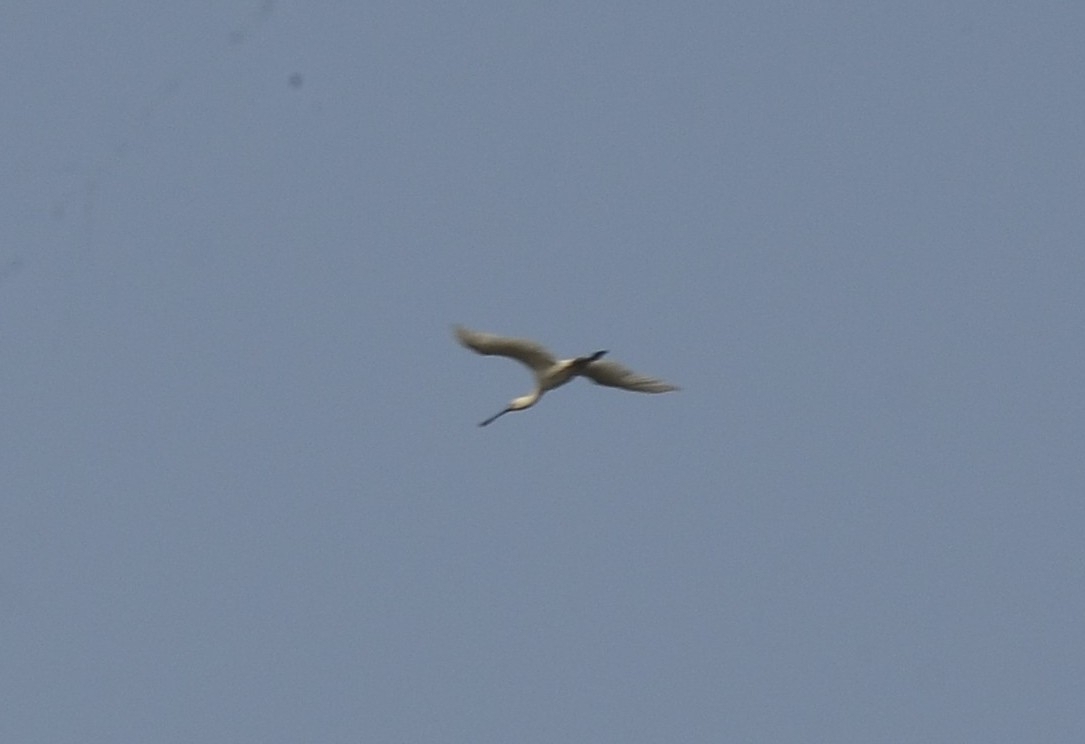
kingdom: Animalia
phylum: Chordata
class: Aves
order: Pelecaniformes
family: Threskiornithidae
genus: Platalea
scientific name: Platalea leucorodia
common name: Eurasian spoonbill
